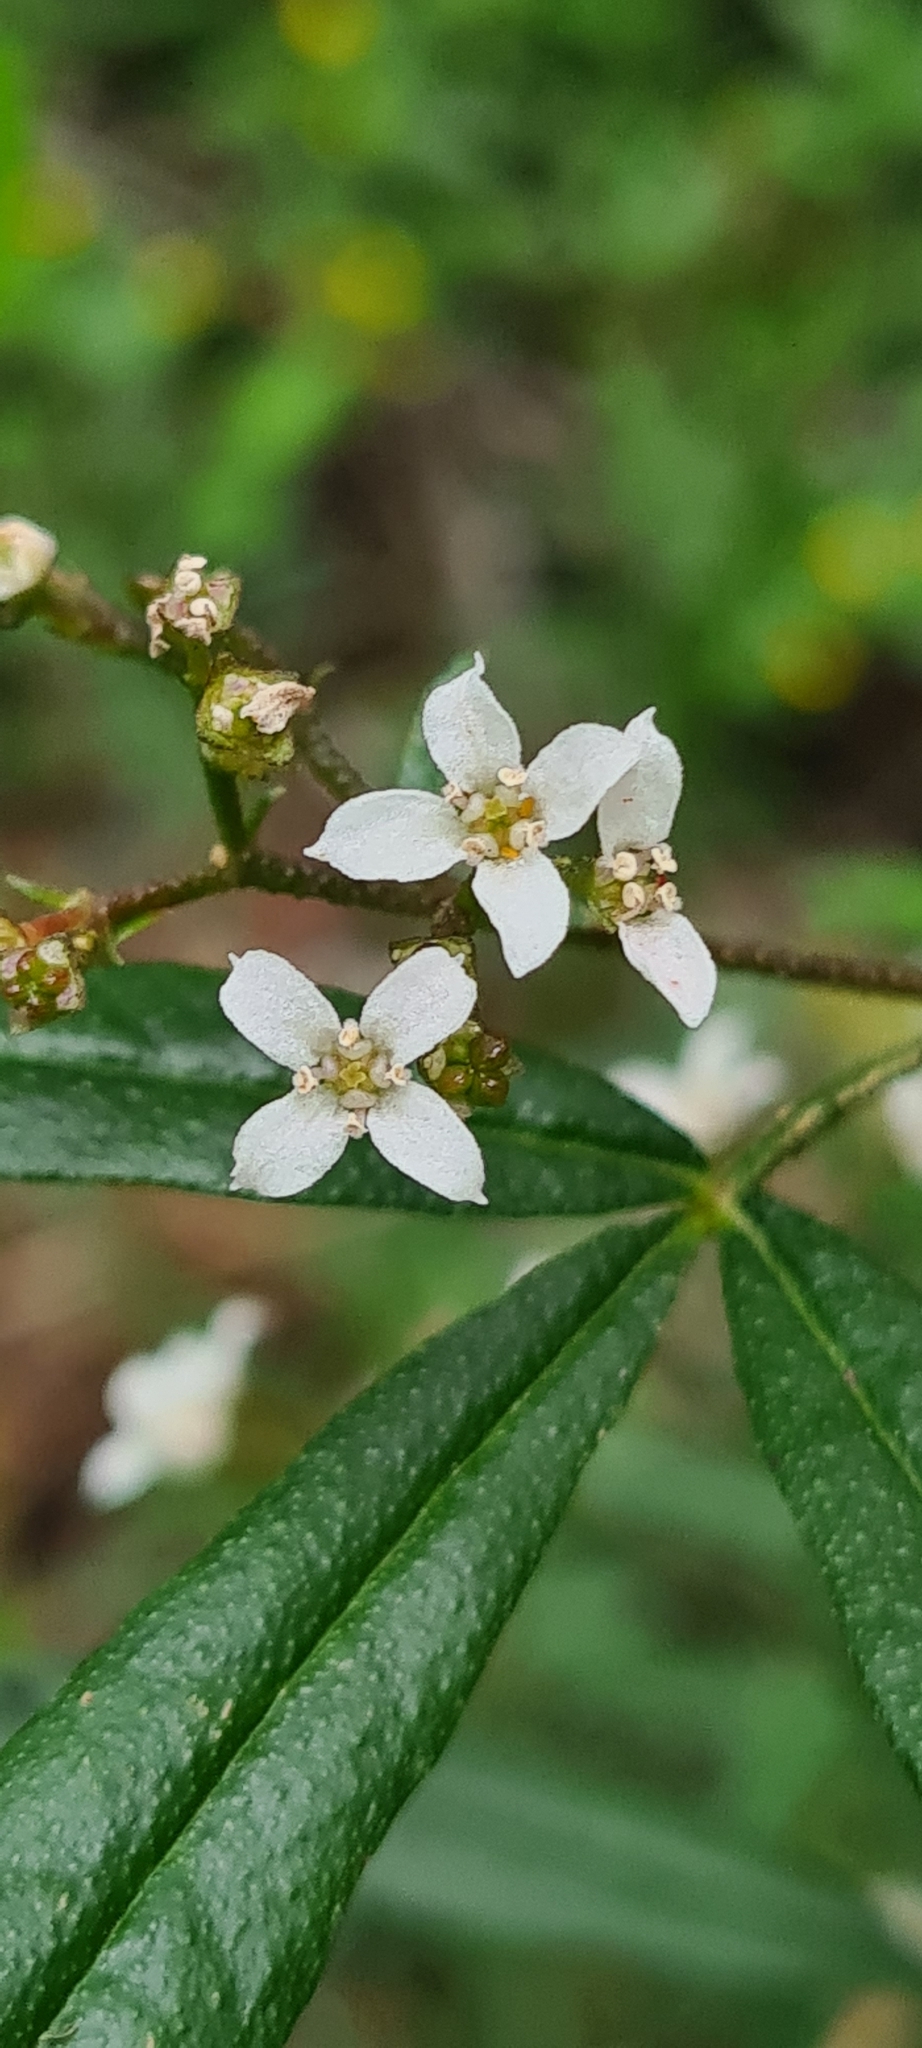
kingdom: Plantae
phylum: Tracheophyta
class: Magnoliopsida
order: Sapindales
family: Rutaceae
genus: Zieria
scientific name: Zieria smithii
